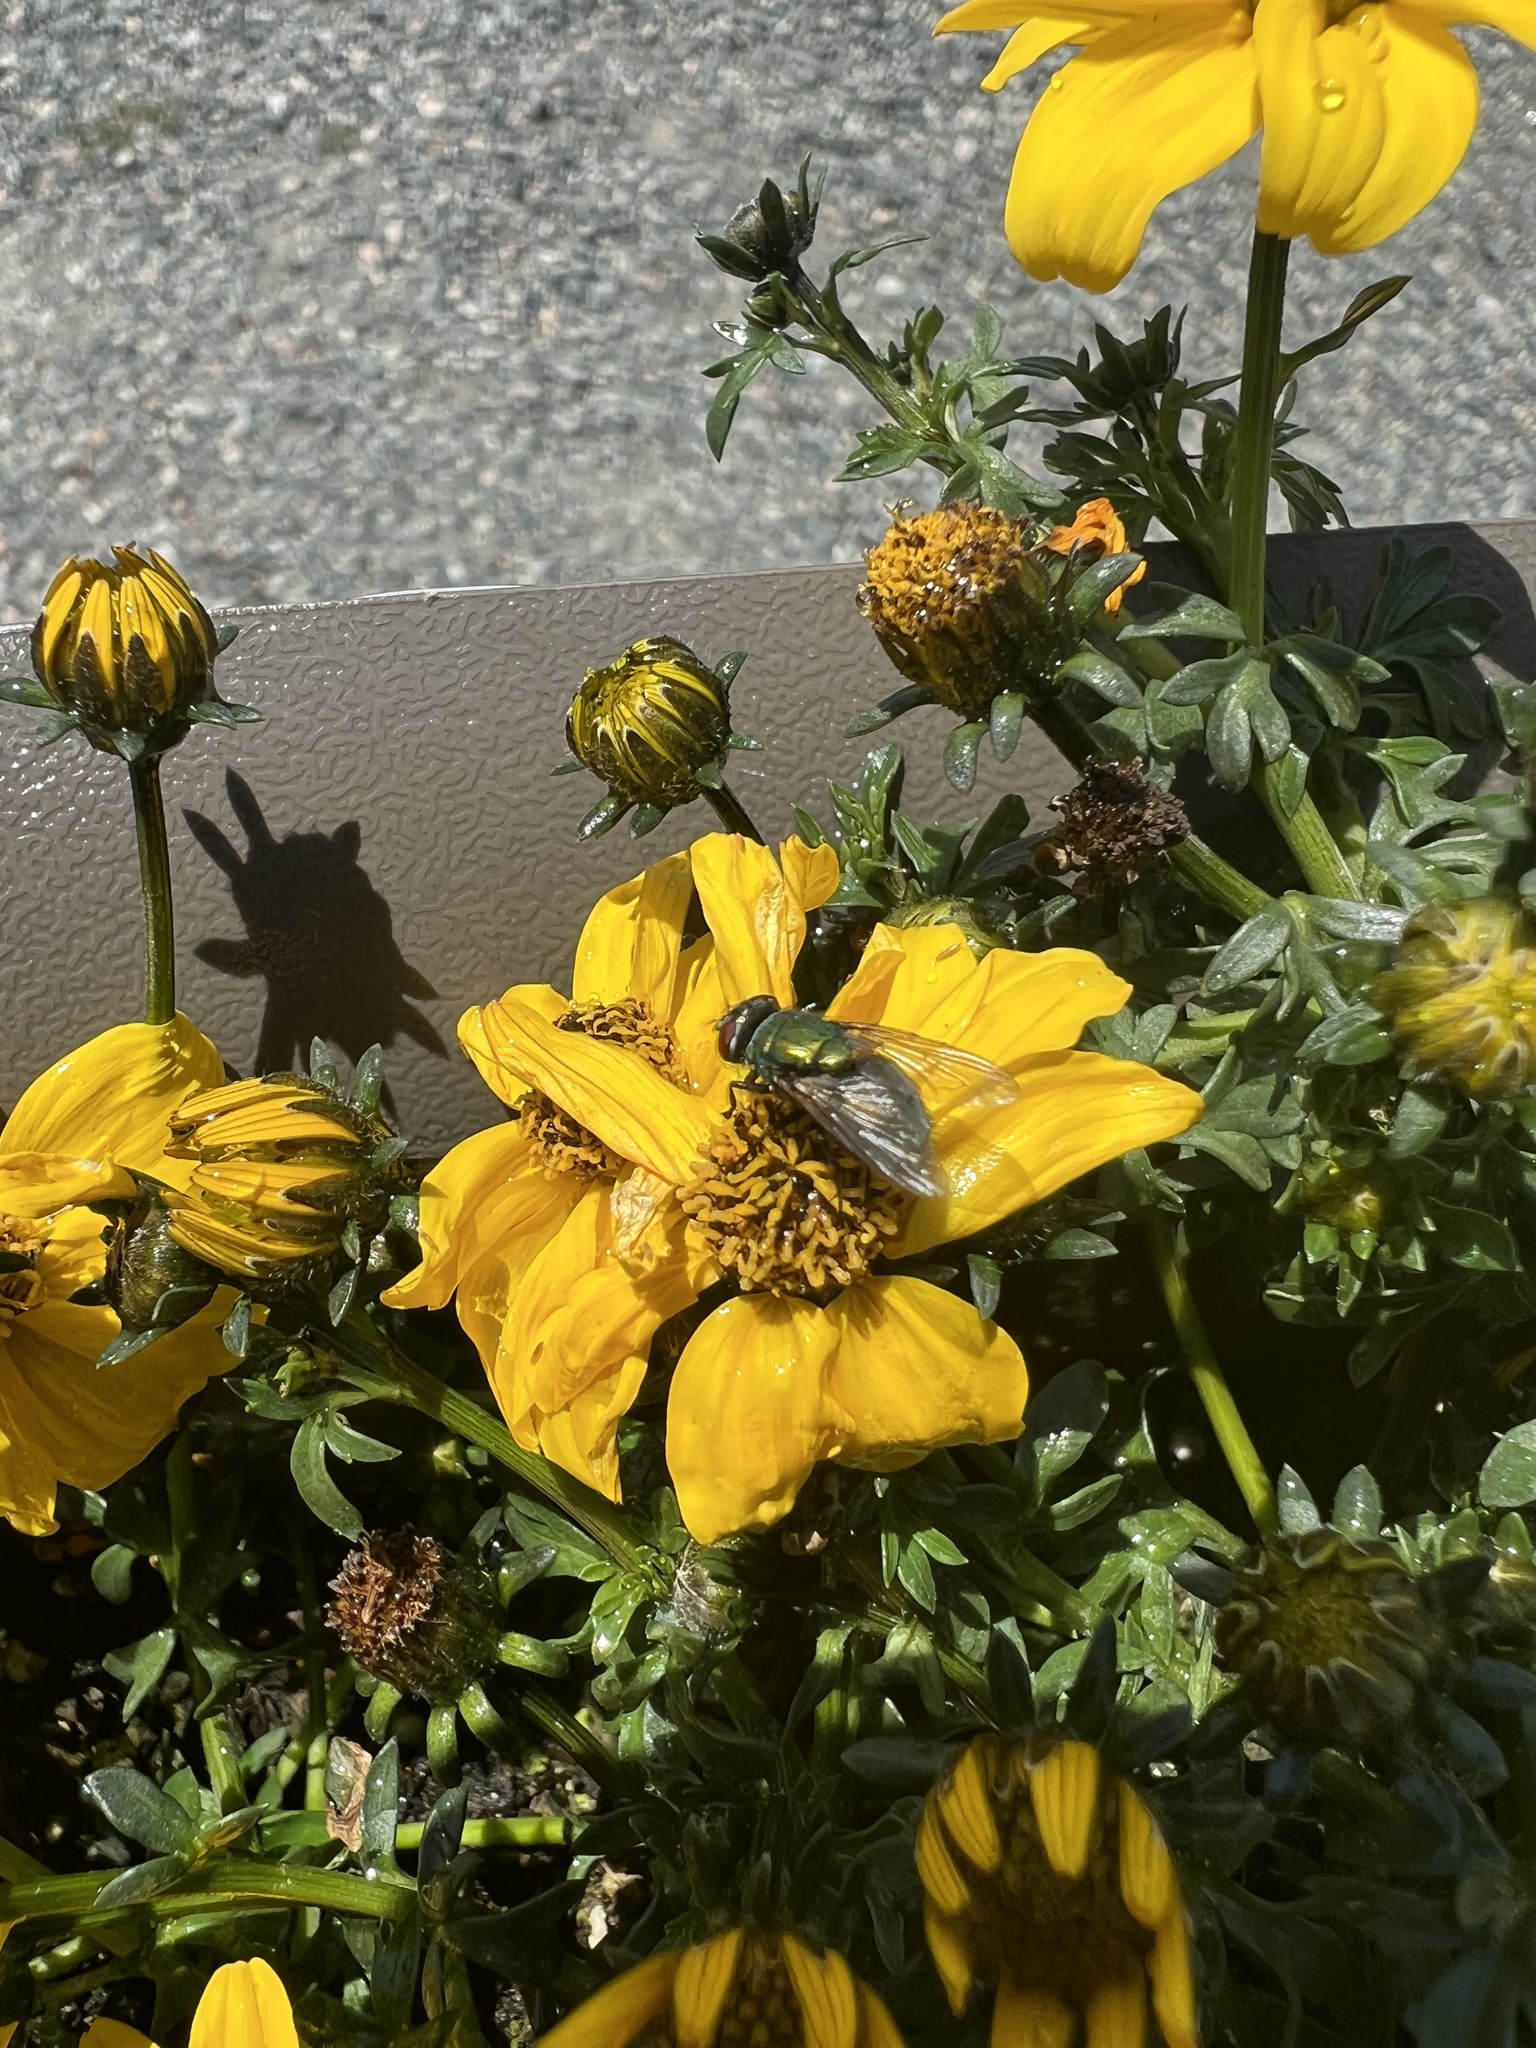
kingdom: Animalia
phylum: Arthropoda
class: Insecta
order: Diptera
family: Calliphoridae
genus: Lucilia
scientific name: Lucilia sericata
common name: Blow fly
